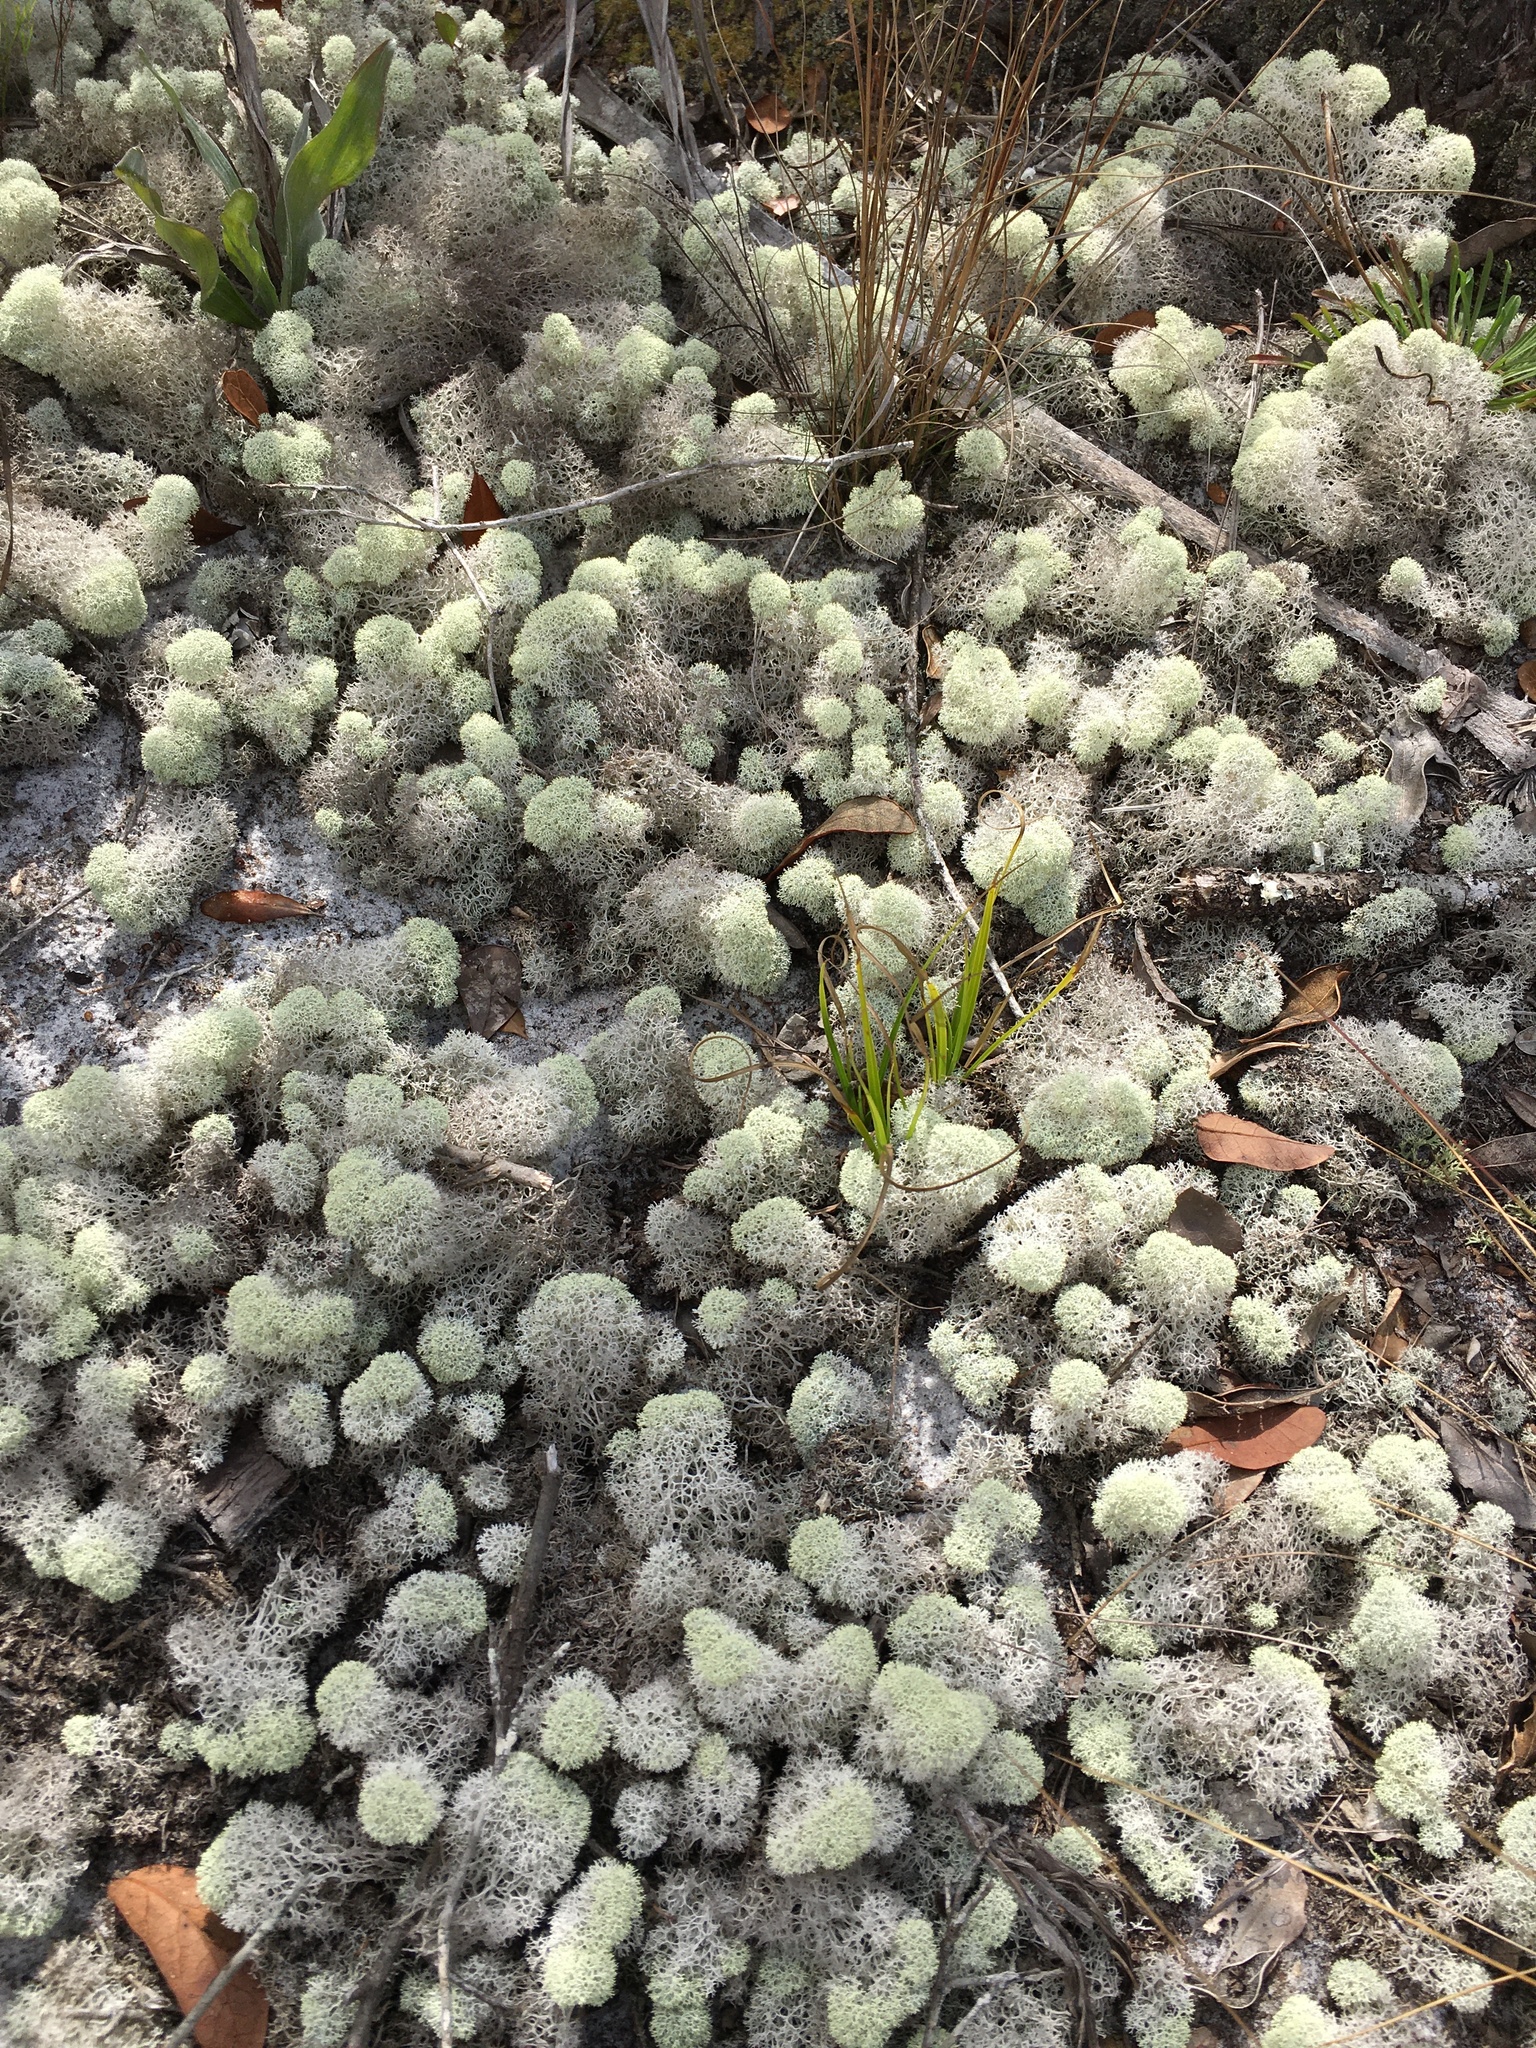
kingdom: Fungi
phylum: Ascomycota
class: Lecanoromycetes
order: Lecanorales
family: Cladoniaceae
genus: Cladonia
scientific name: Cladonia evansii
